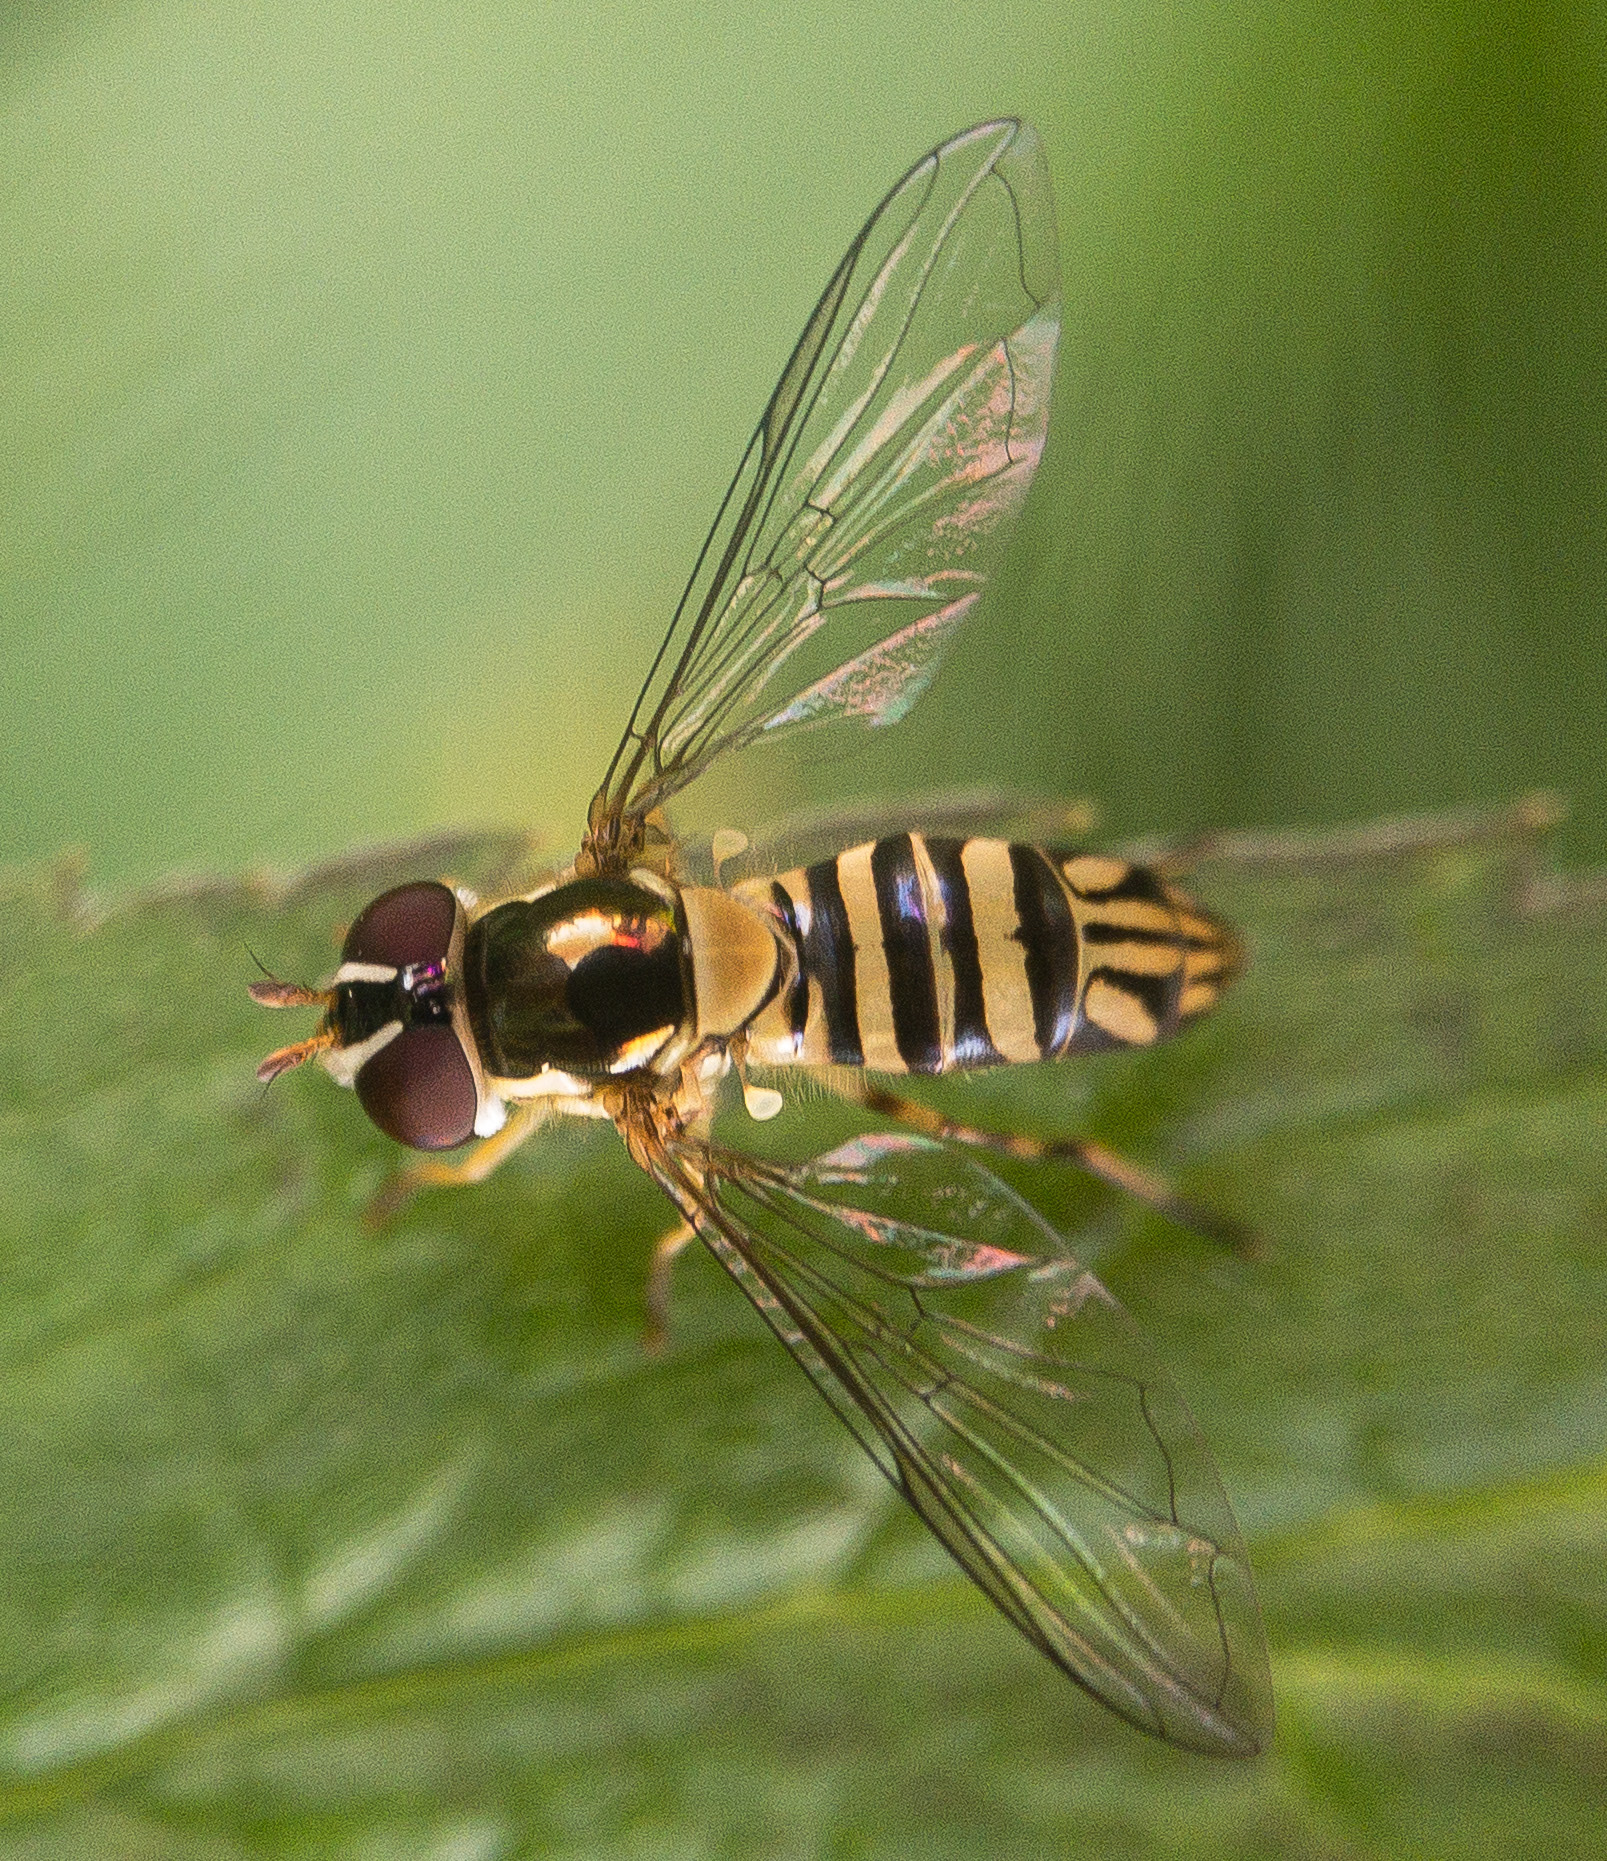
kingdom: Animalia
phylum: Arthropoda
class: Insecta
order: Diptera
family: Syrphidae
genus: Allograpta
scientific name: Allograpta obliqua
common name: Common oblique syrphid
